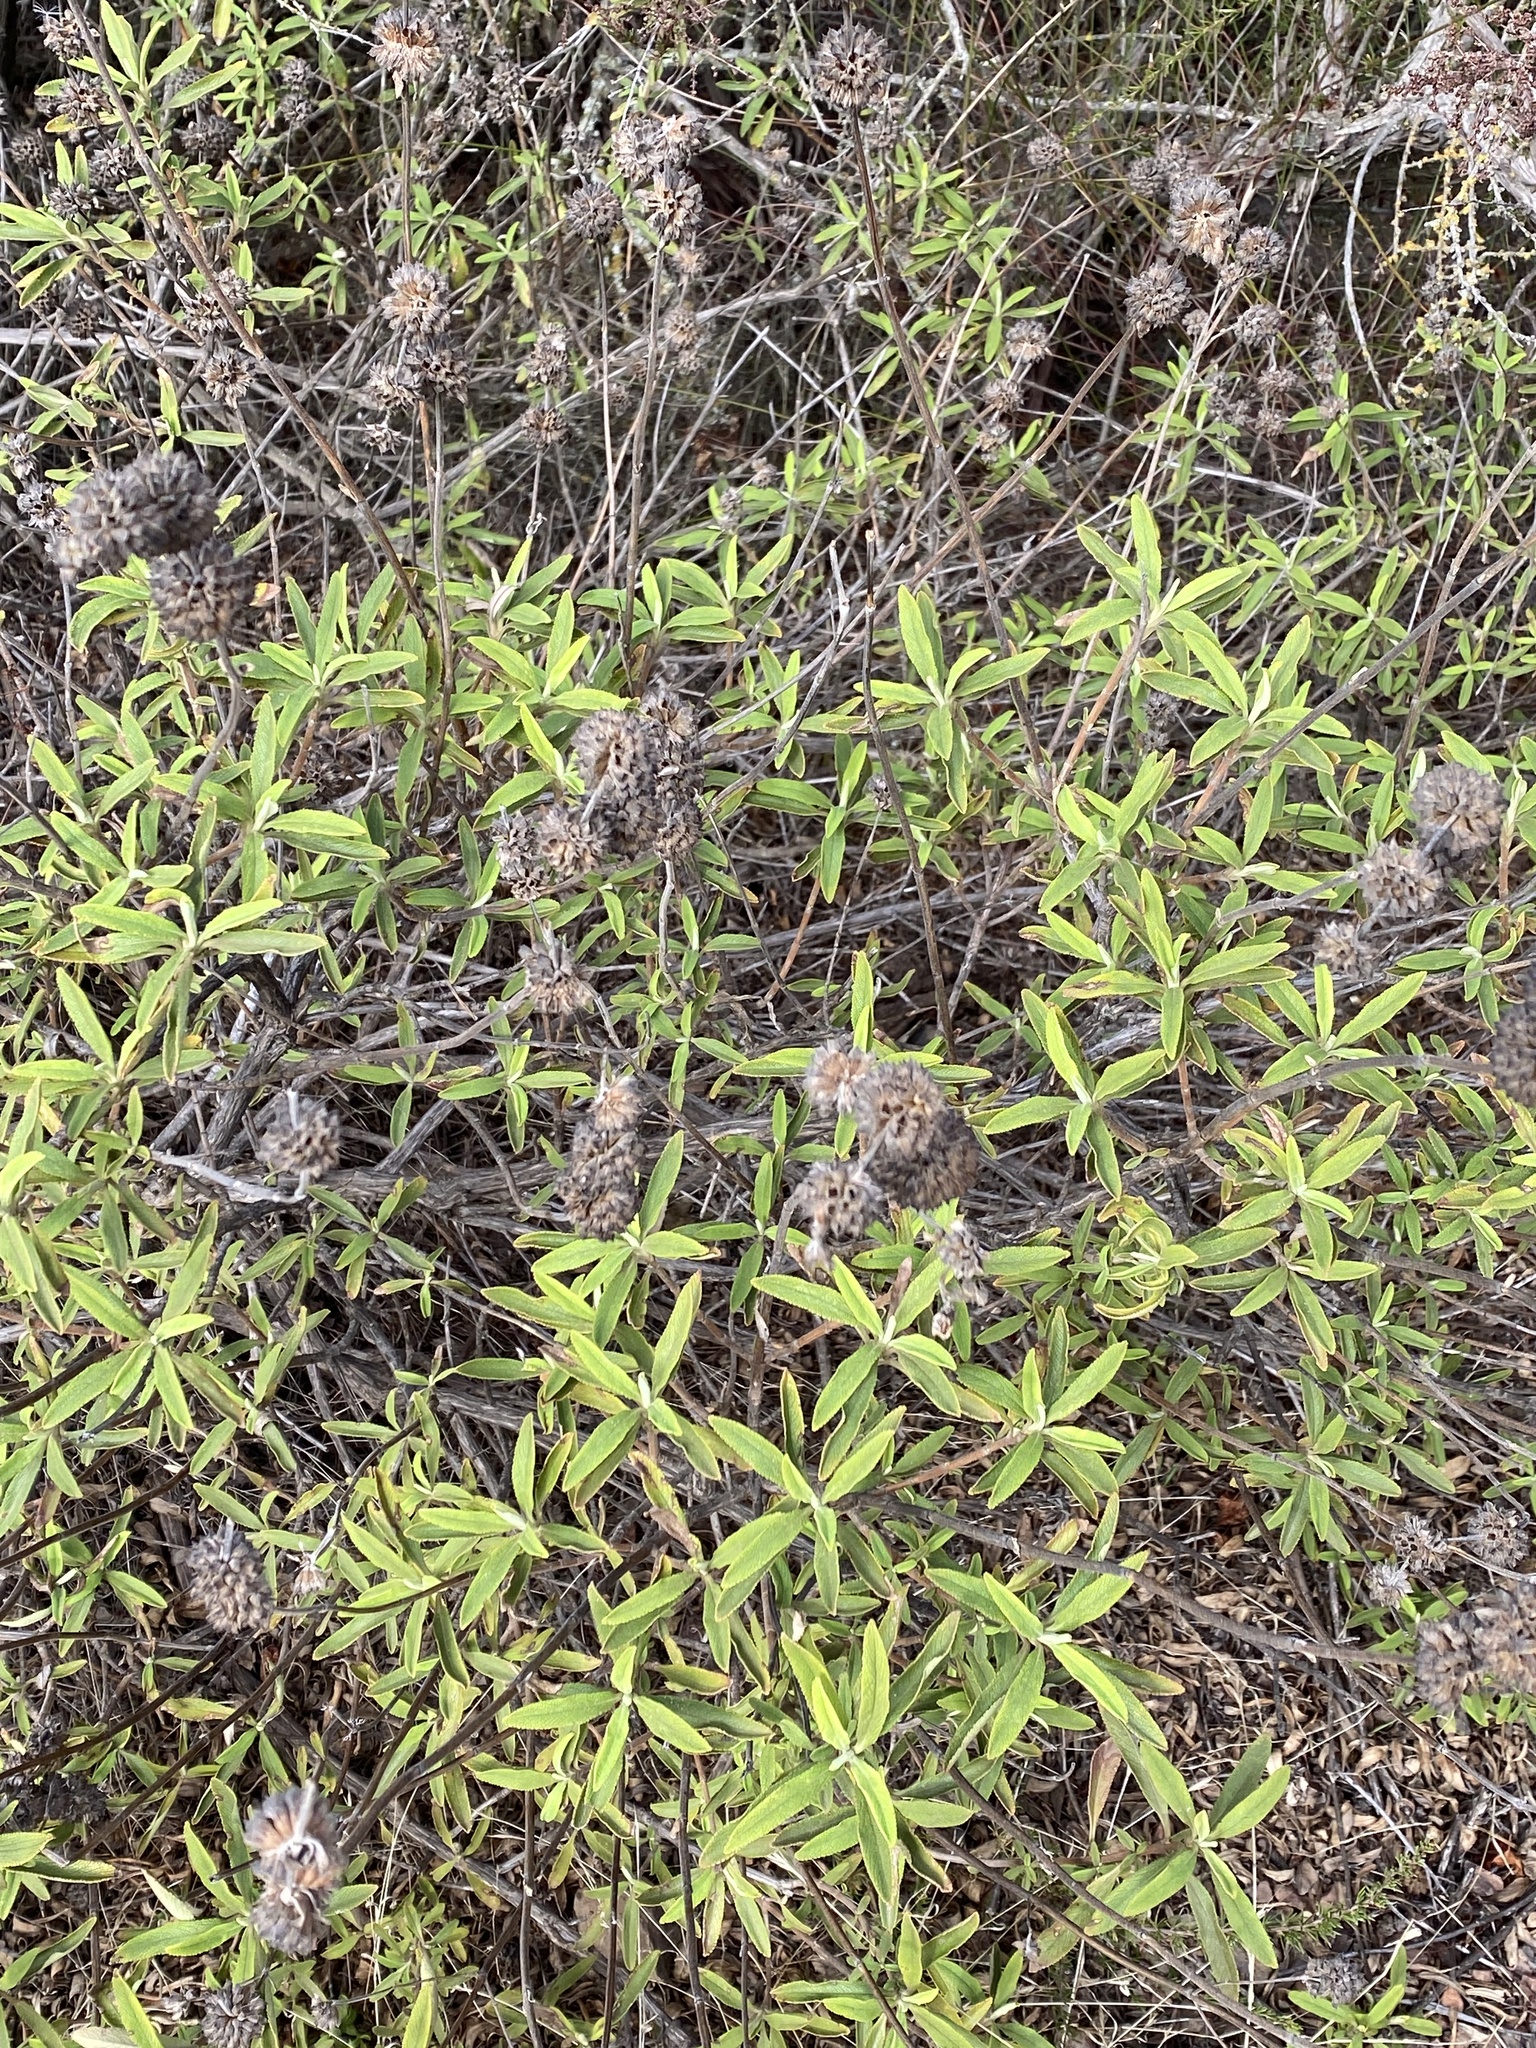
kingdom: Plantae
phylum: Tracheophyta
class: Magnoliopsida
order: Lamiales
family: Lamiaceae
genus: Salvia
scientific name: Salvia mellifera
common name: Black sage
